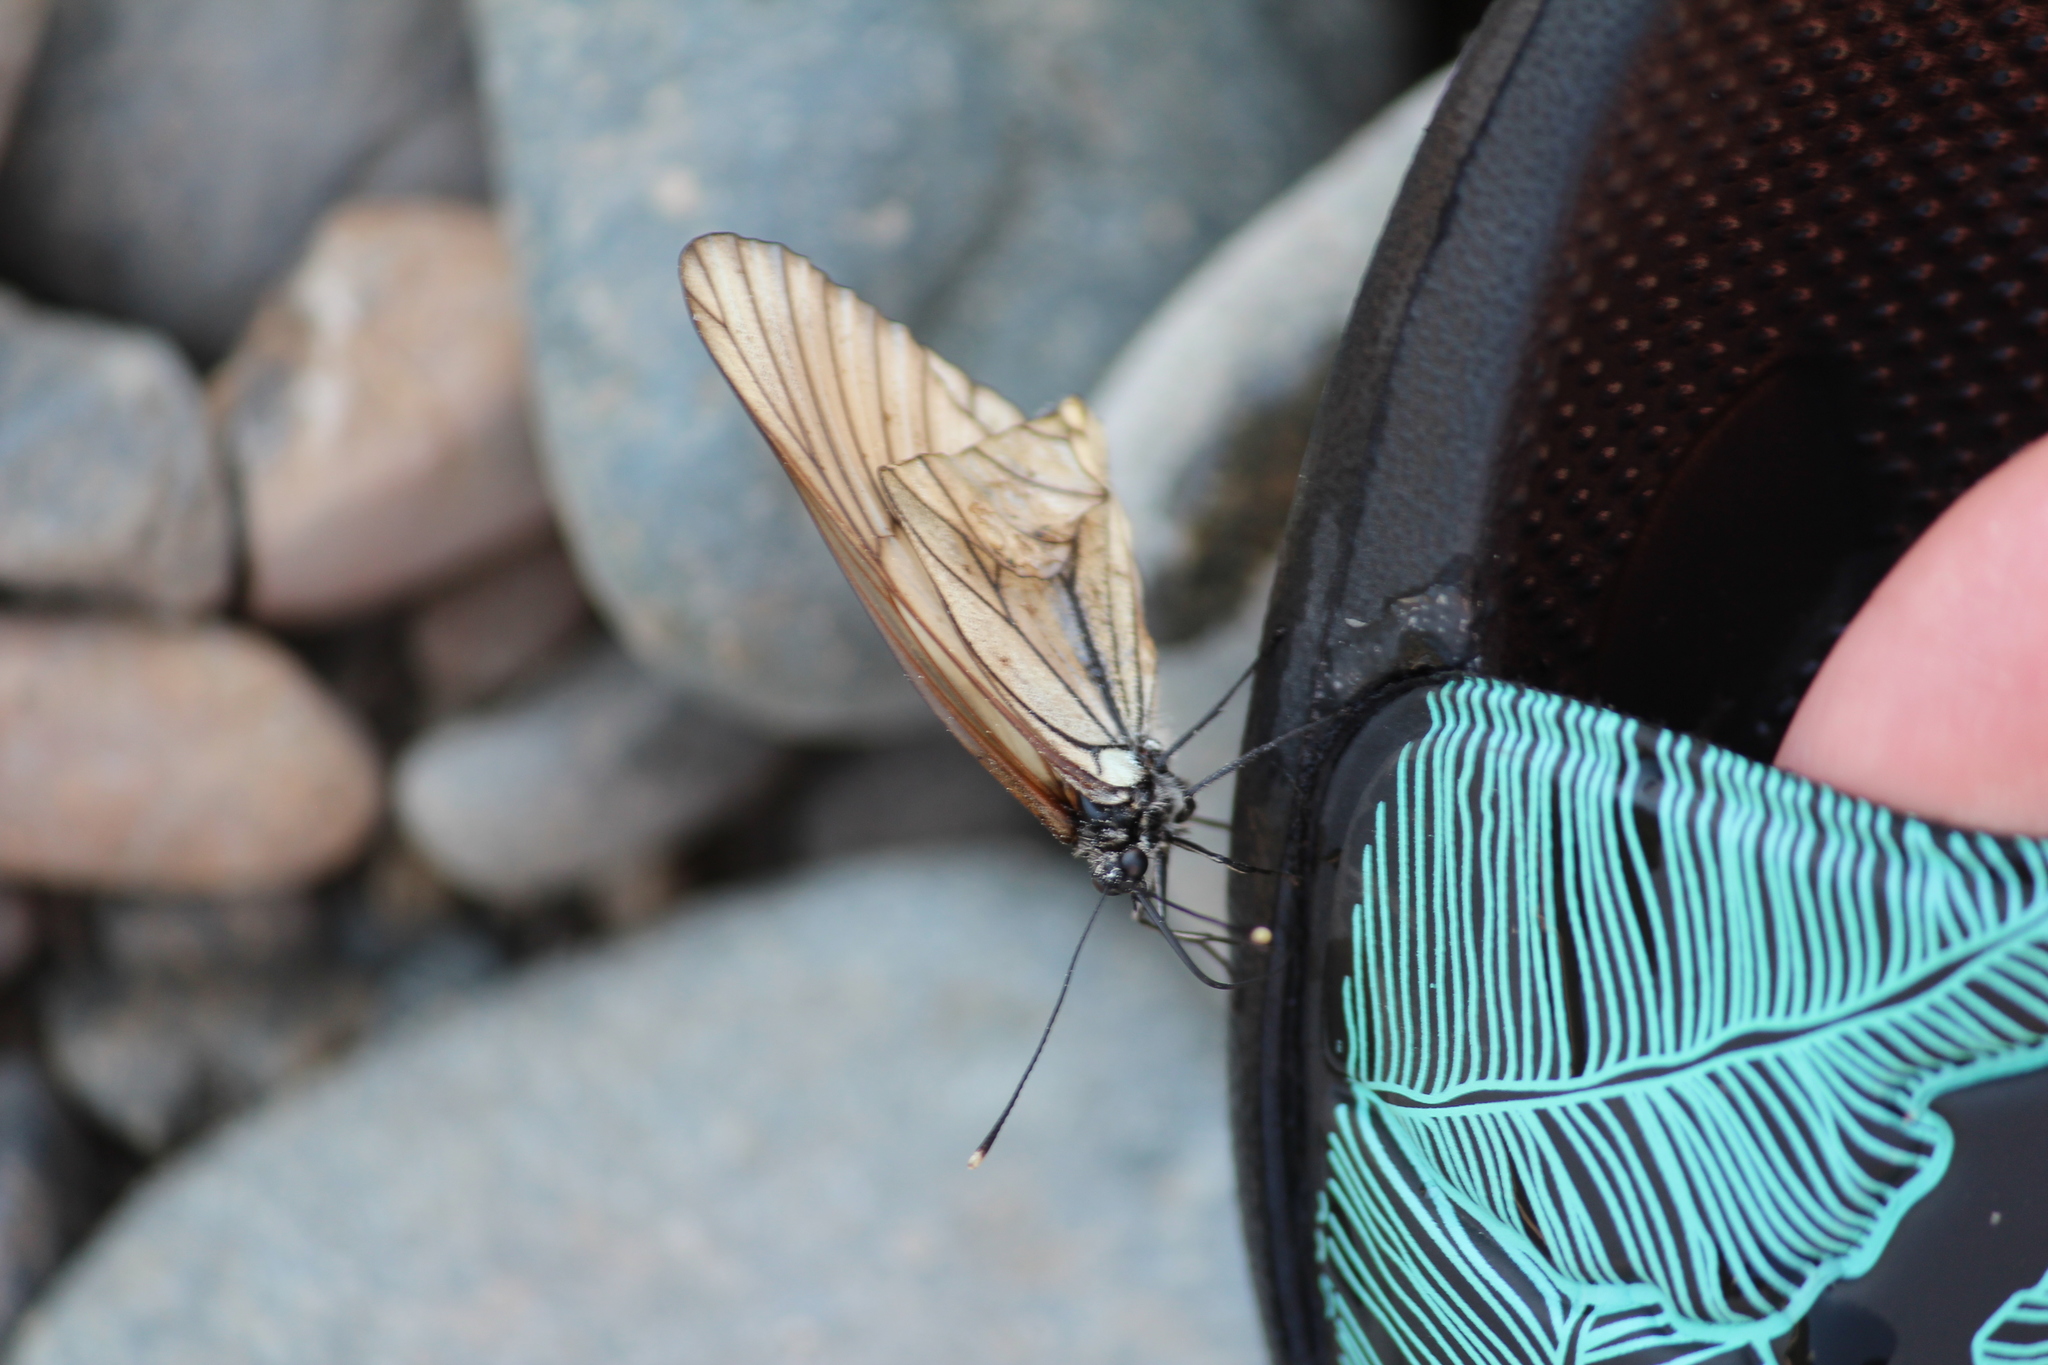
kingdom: Animalia
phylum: Arthropoda
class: Insecta
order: Lepidoptera
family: Pieridae
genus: Aporia
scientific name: Aporia crataegi
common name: Black-veined white
